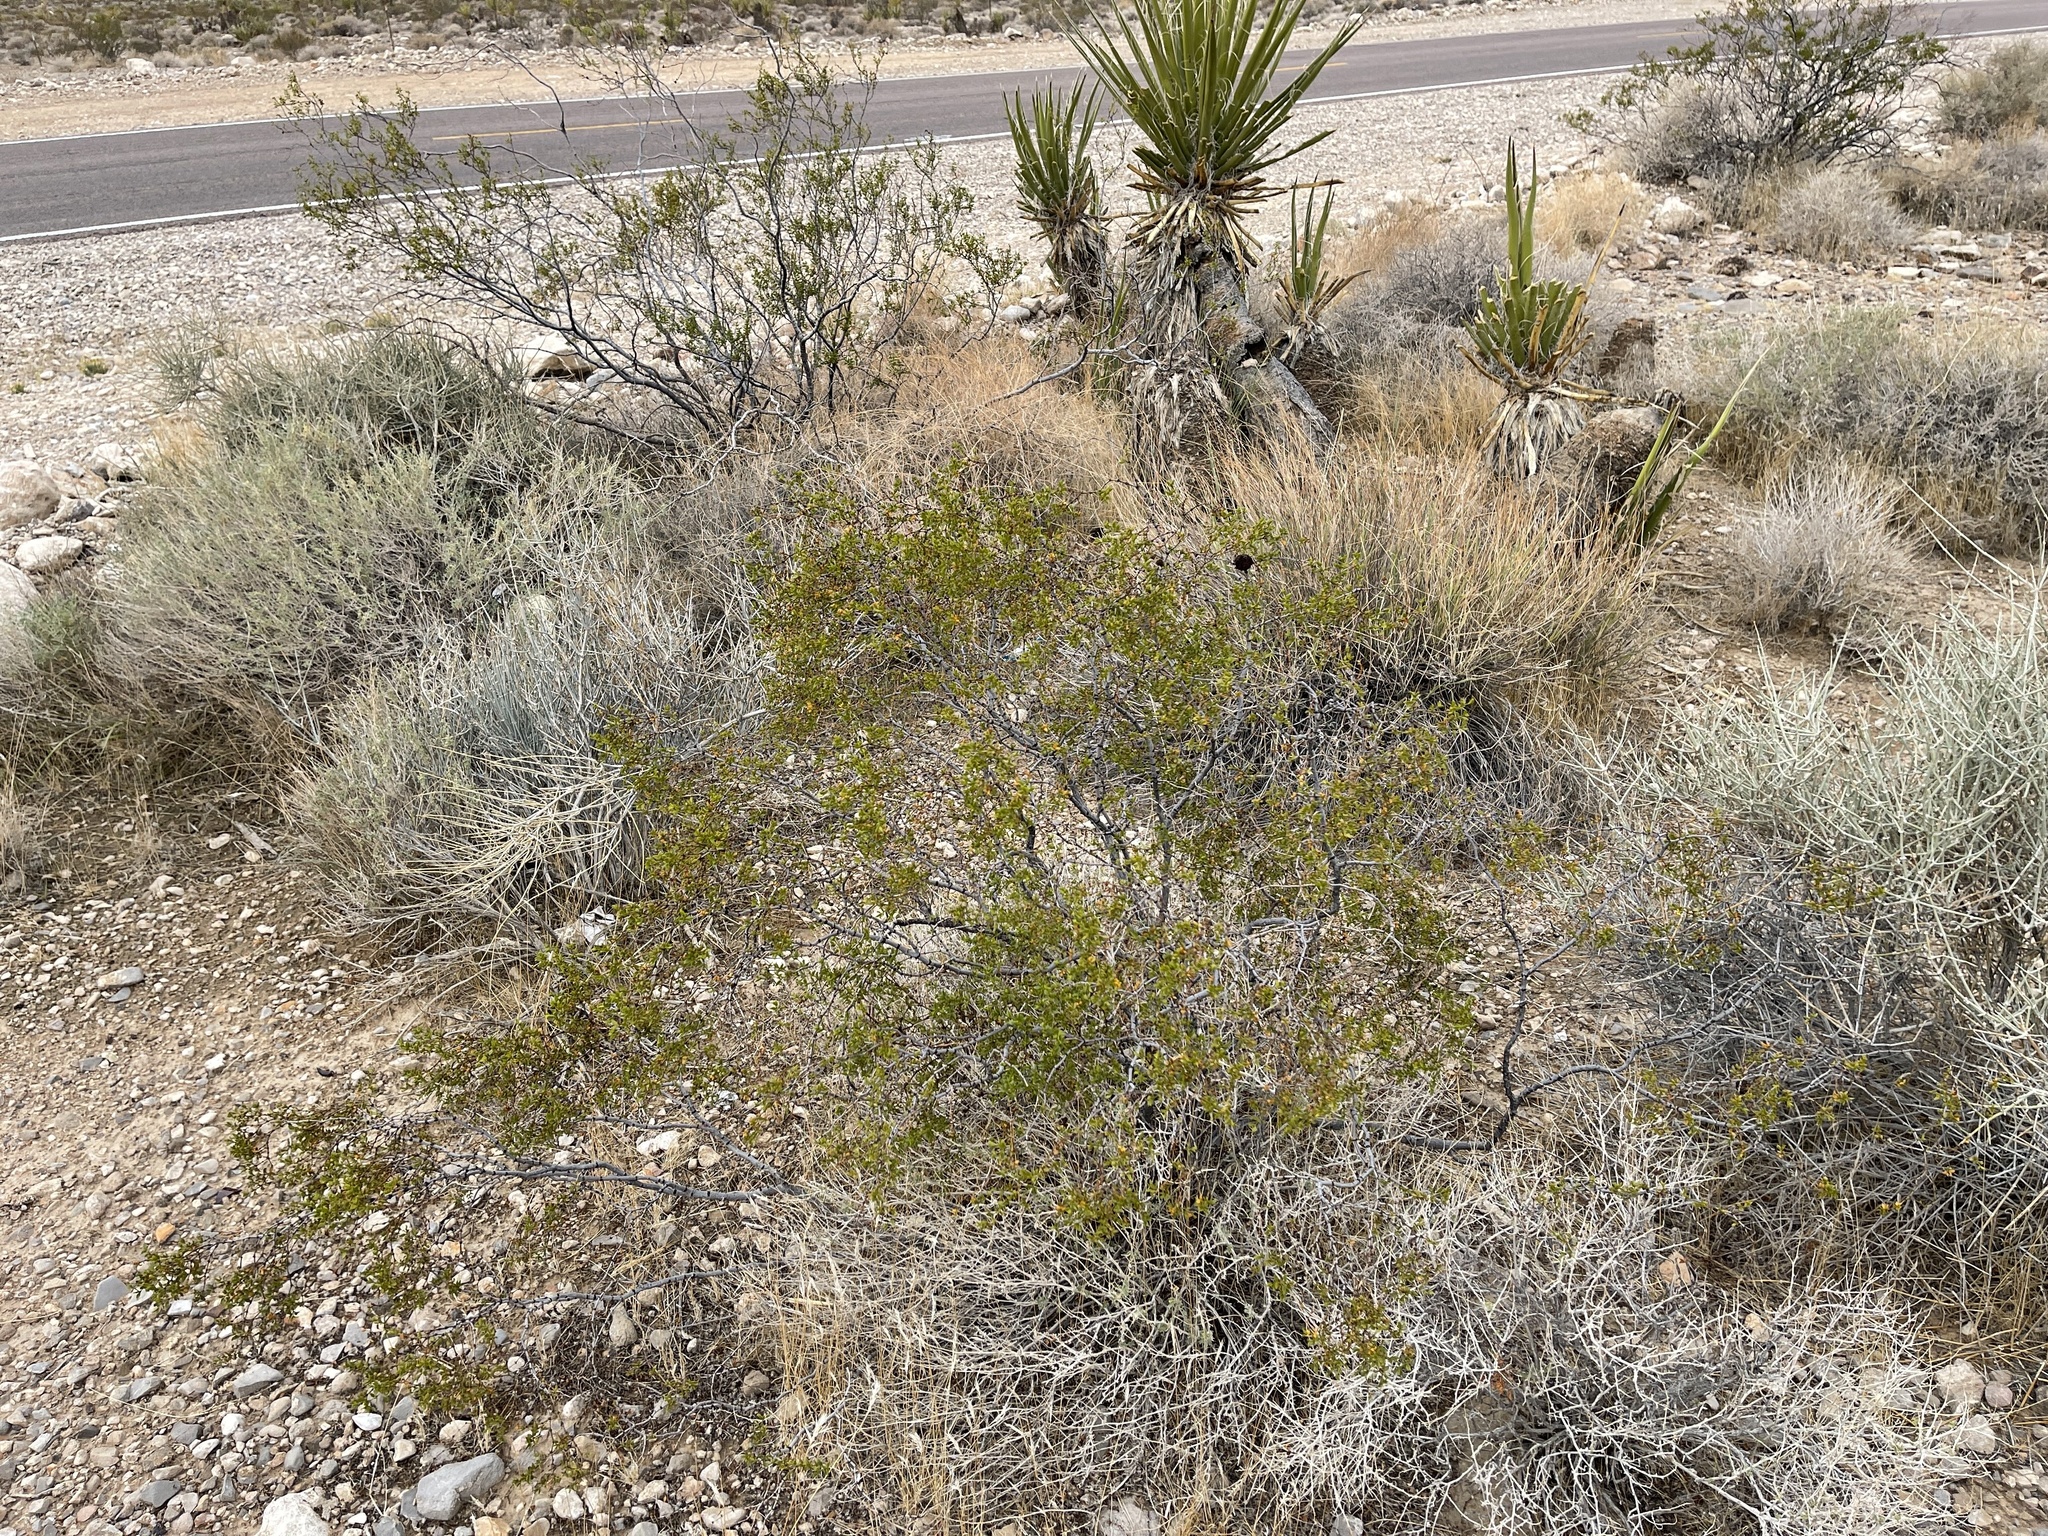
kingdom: Plantae
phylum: Tracheophyta
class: Magnoliopsida
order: Zygophyllales
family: Zygophyllaceae
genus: Larrea
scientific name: Larrea tridentata
